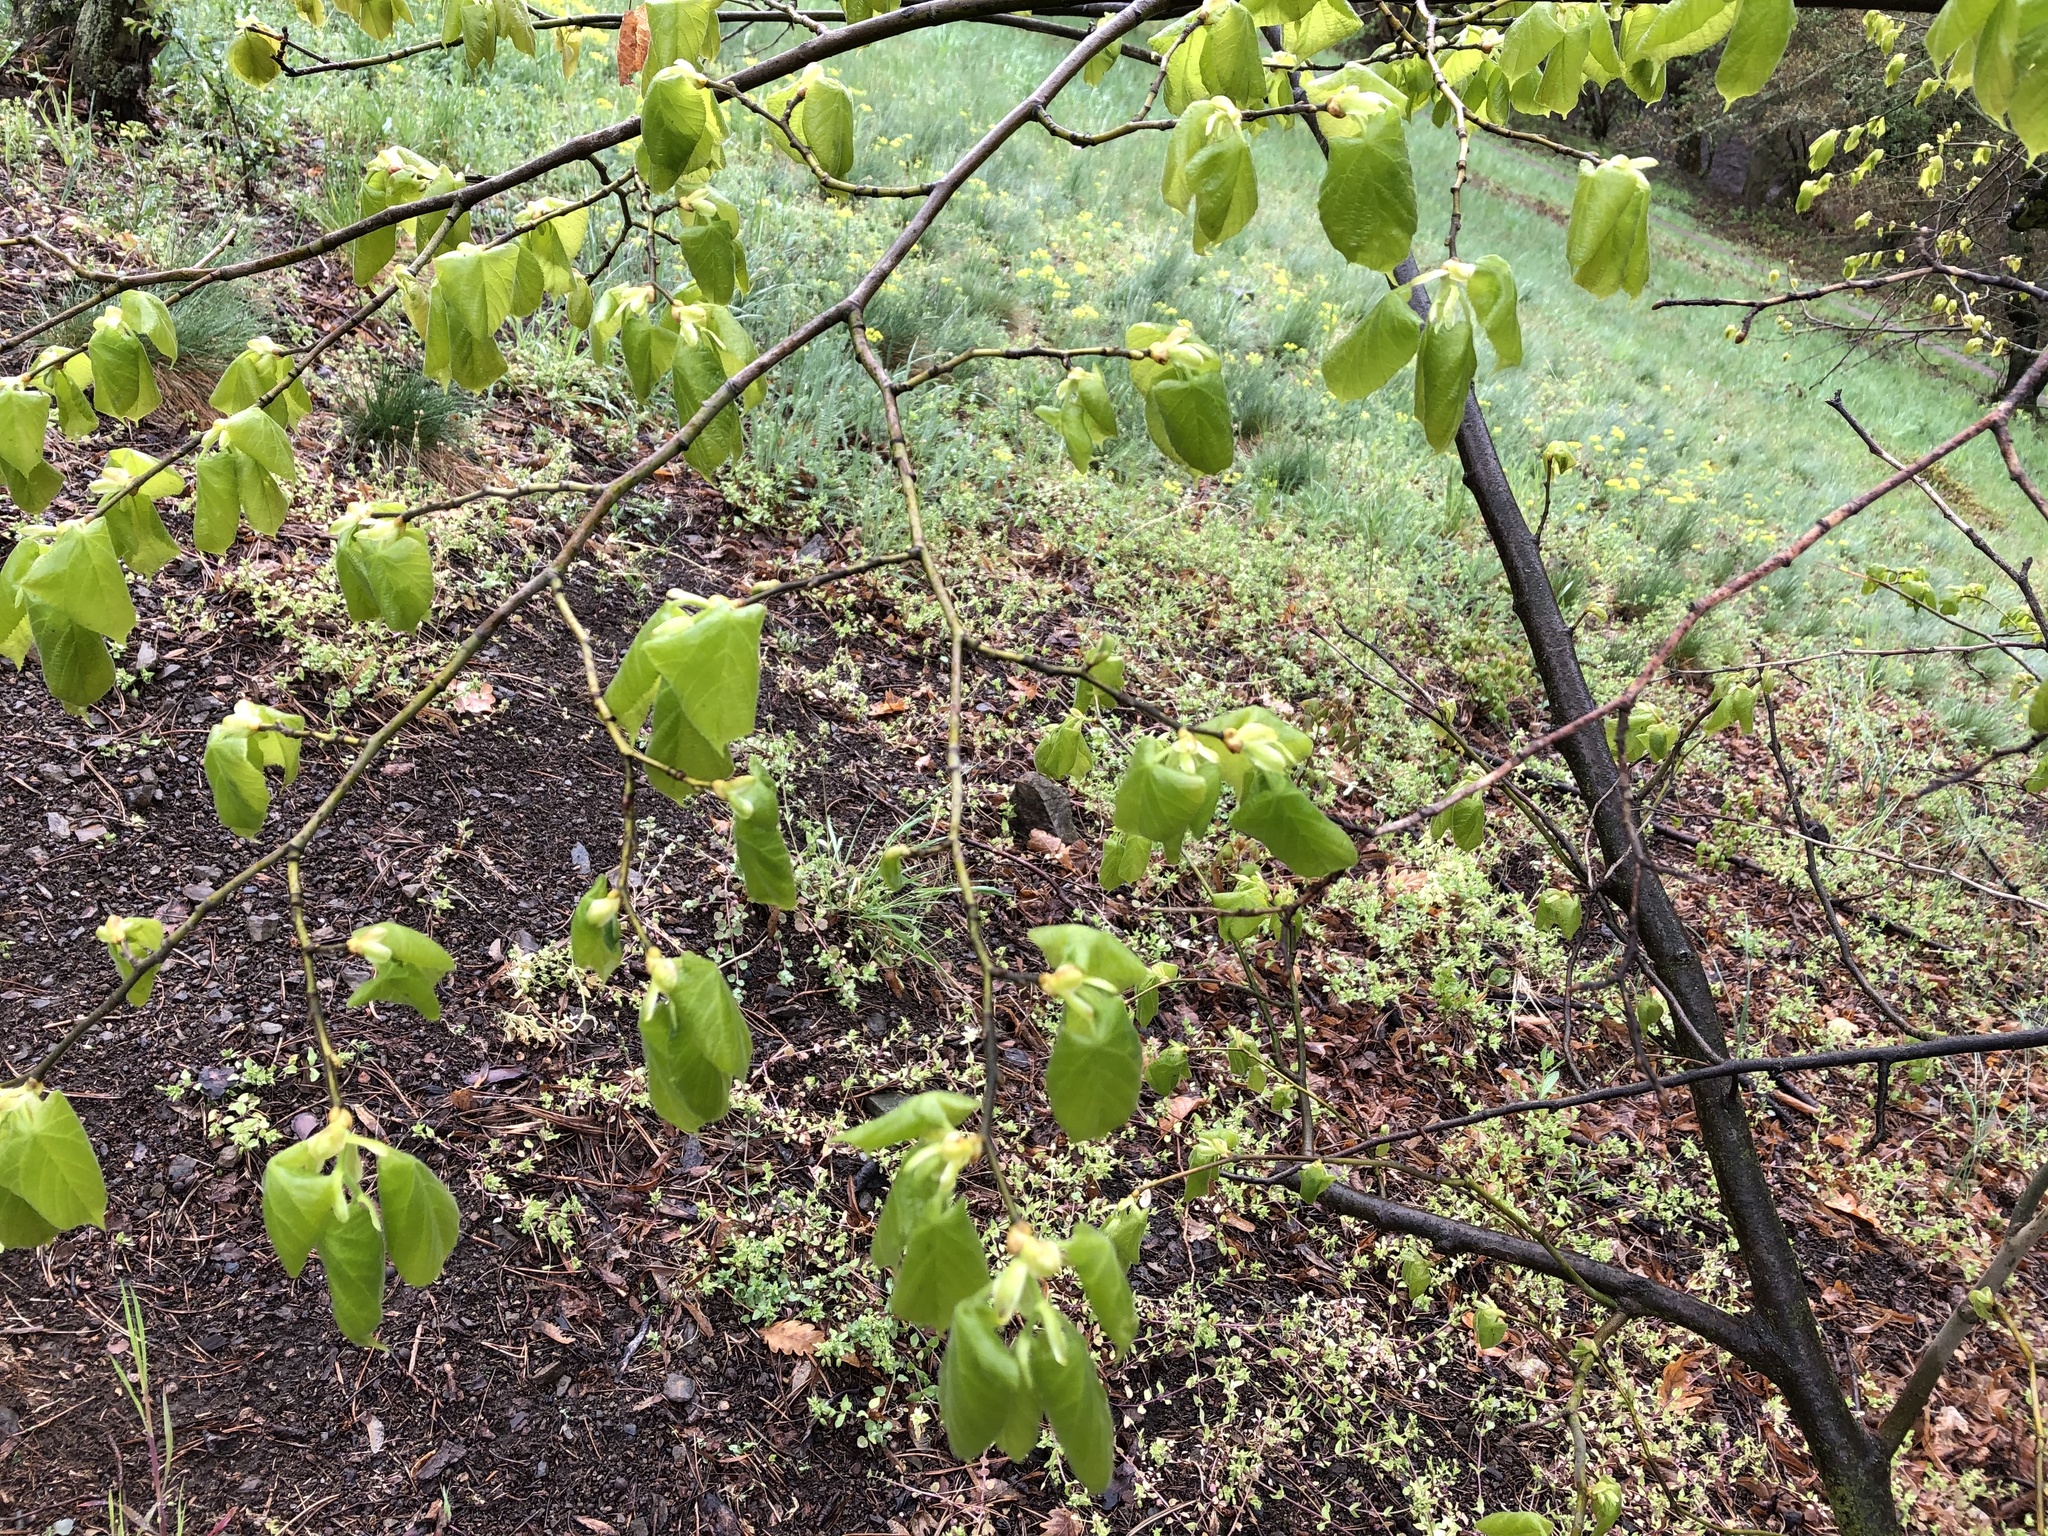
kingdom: Plantae
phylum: Tracheophyta
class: Magnoliopsida
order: Malvales
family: Malvaceae
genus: Tilia
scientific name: Tilia cordata
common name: Small-leaved lime
